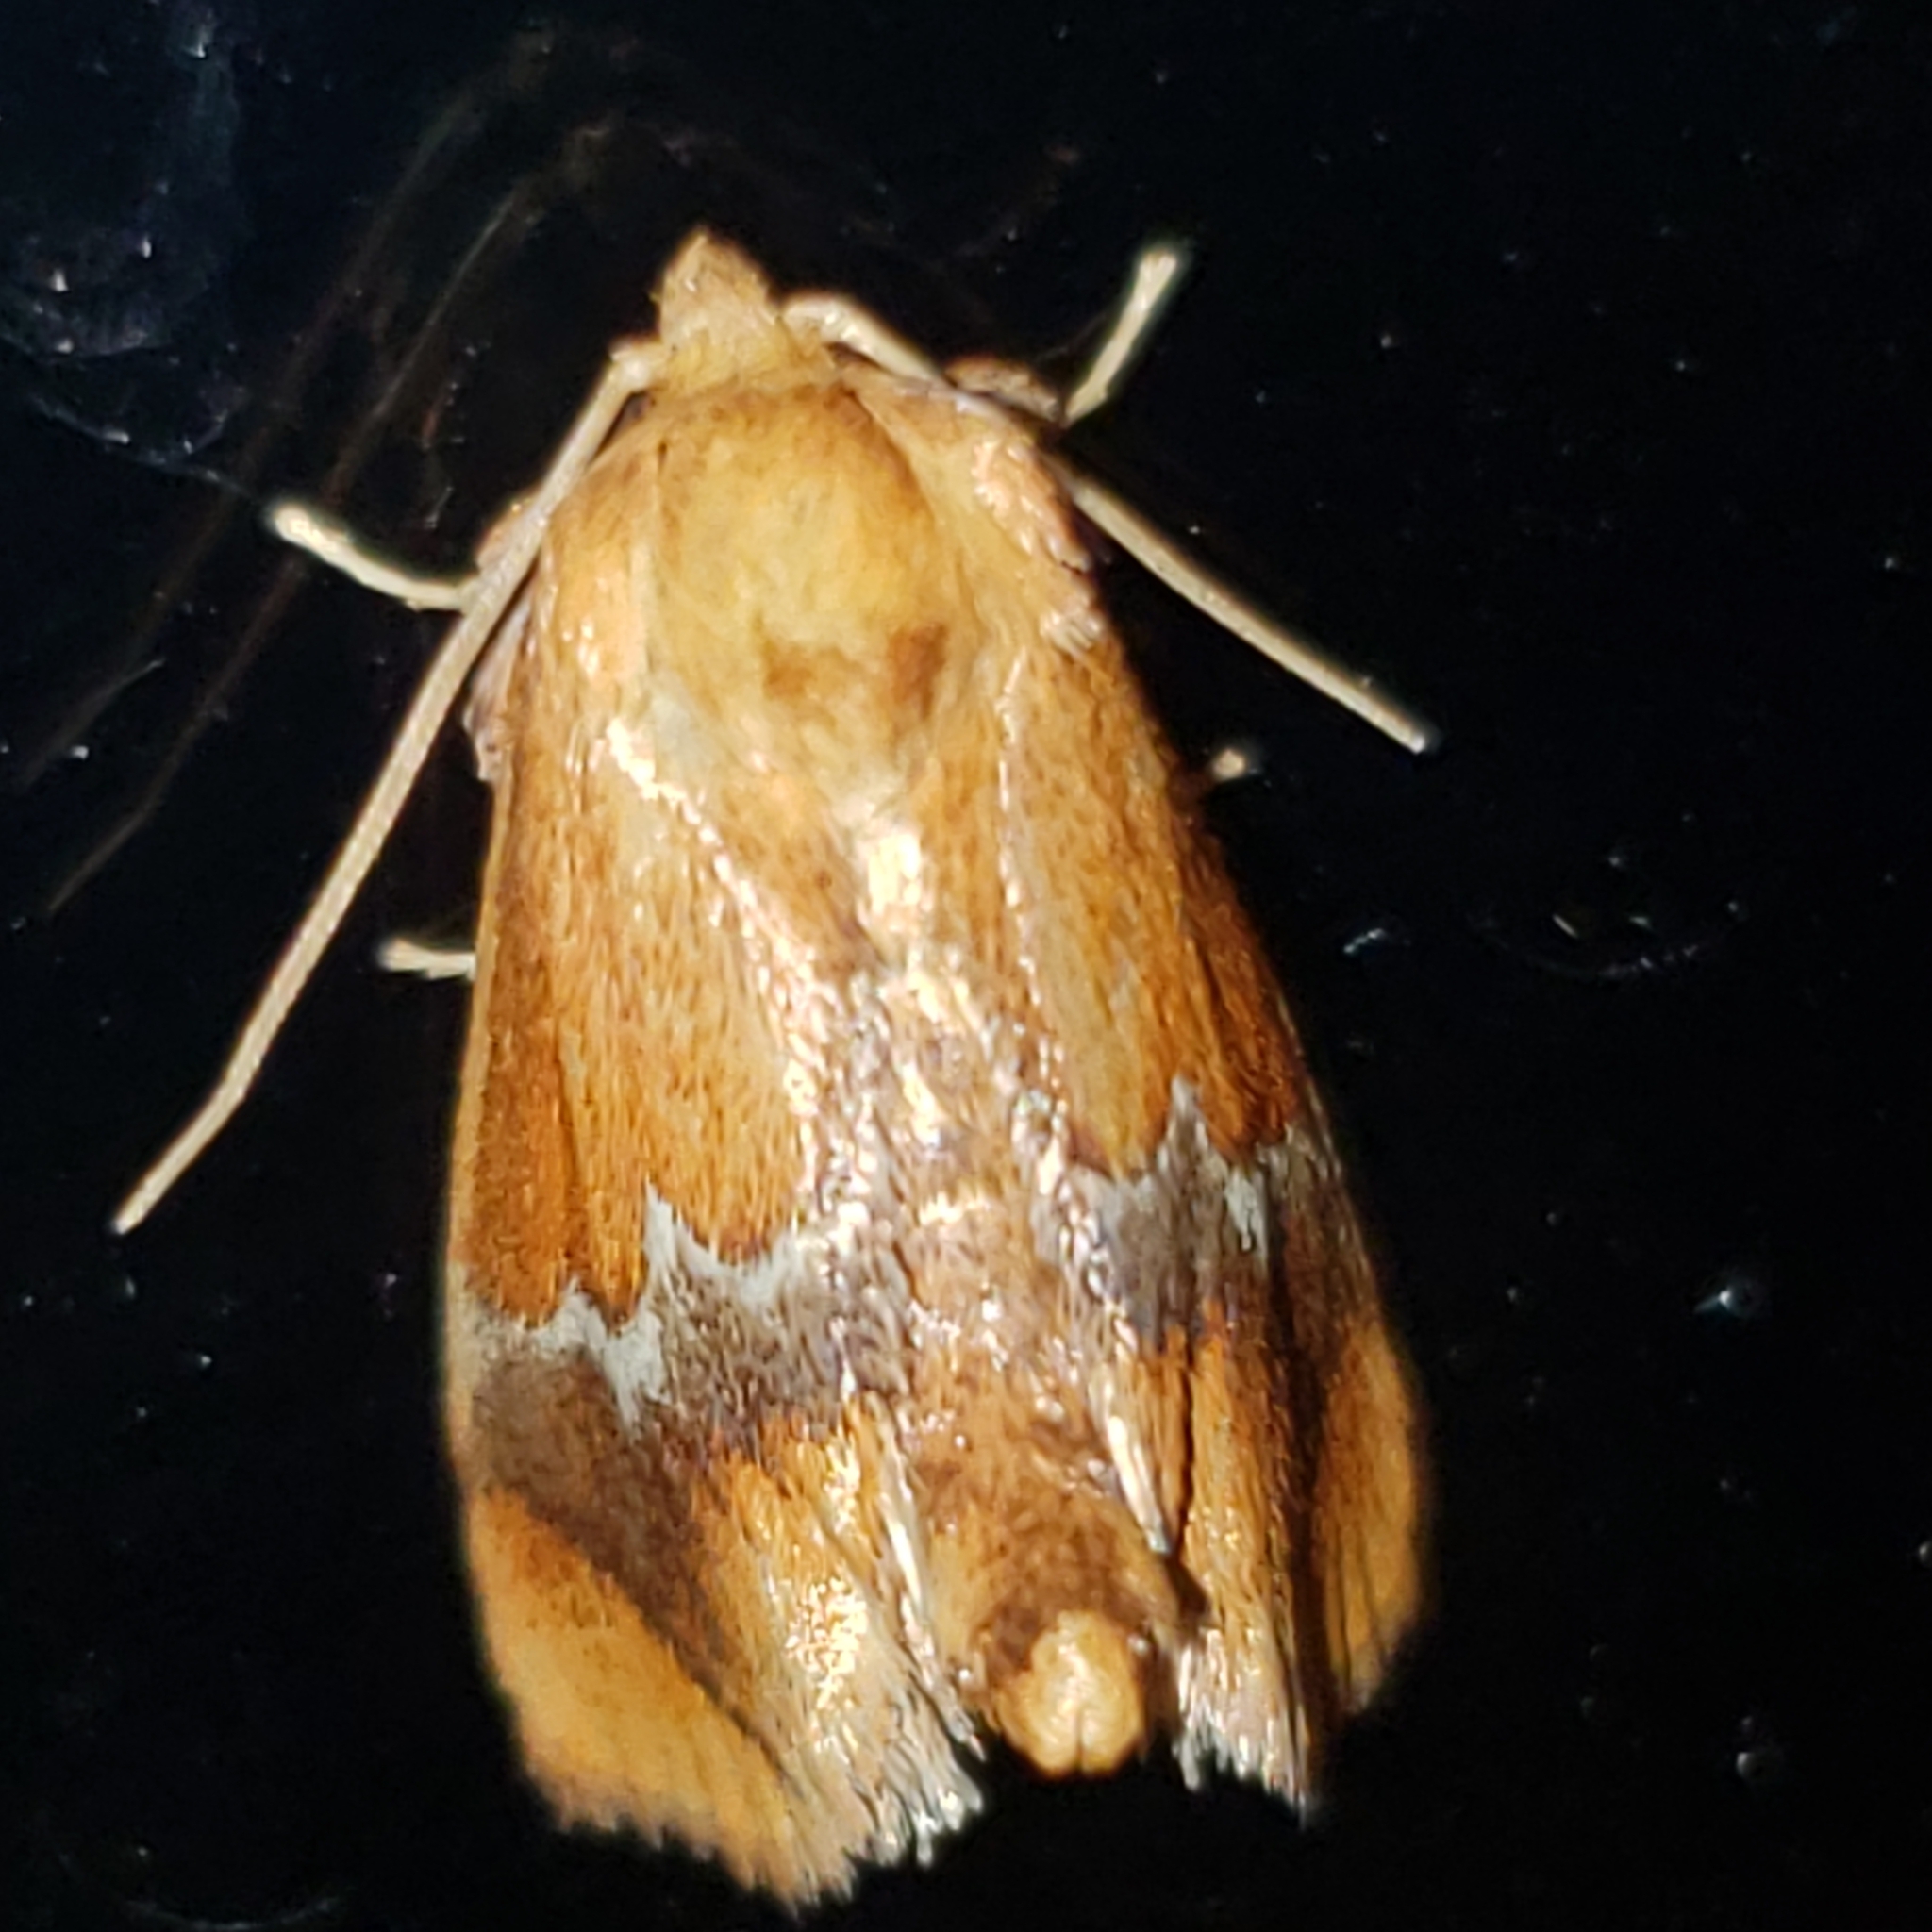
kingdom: Animalia
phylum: Arthropoda
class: Insecta
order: Lepidoptera
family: Limacodidae
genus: Lithacodes
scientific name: Lithacodes fasciola
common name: Yellow-shouldered slug moth
